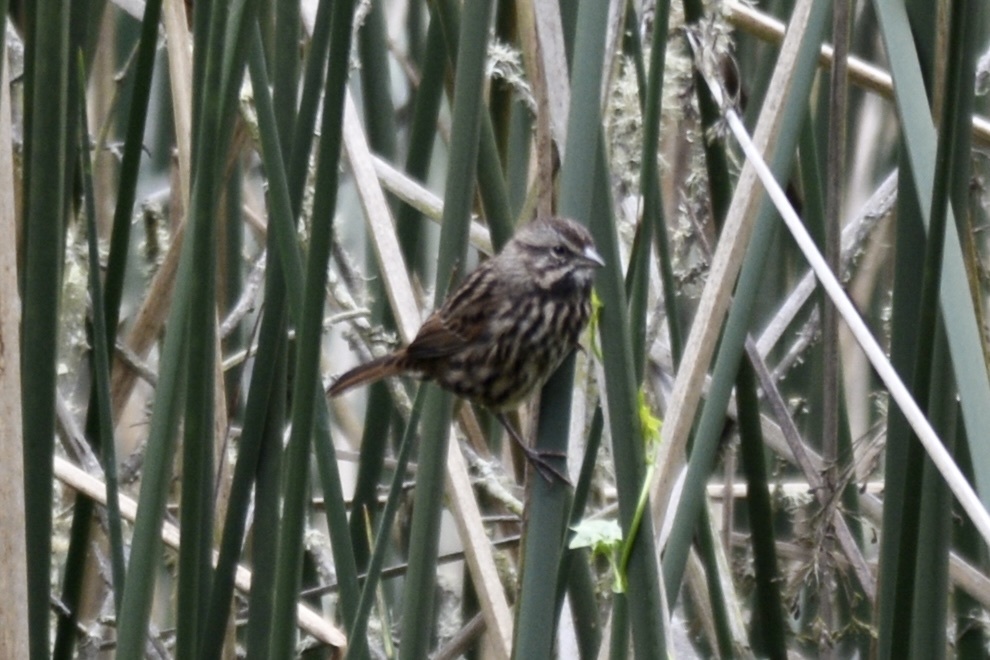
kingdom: Animalia
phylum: Chordata
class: Aves
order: Passeriformes
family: Passerellidae
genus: Melospiza
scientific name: Melospiza melodia
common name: Song sparrow
